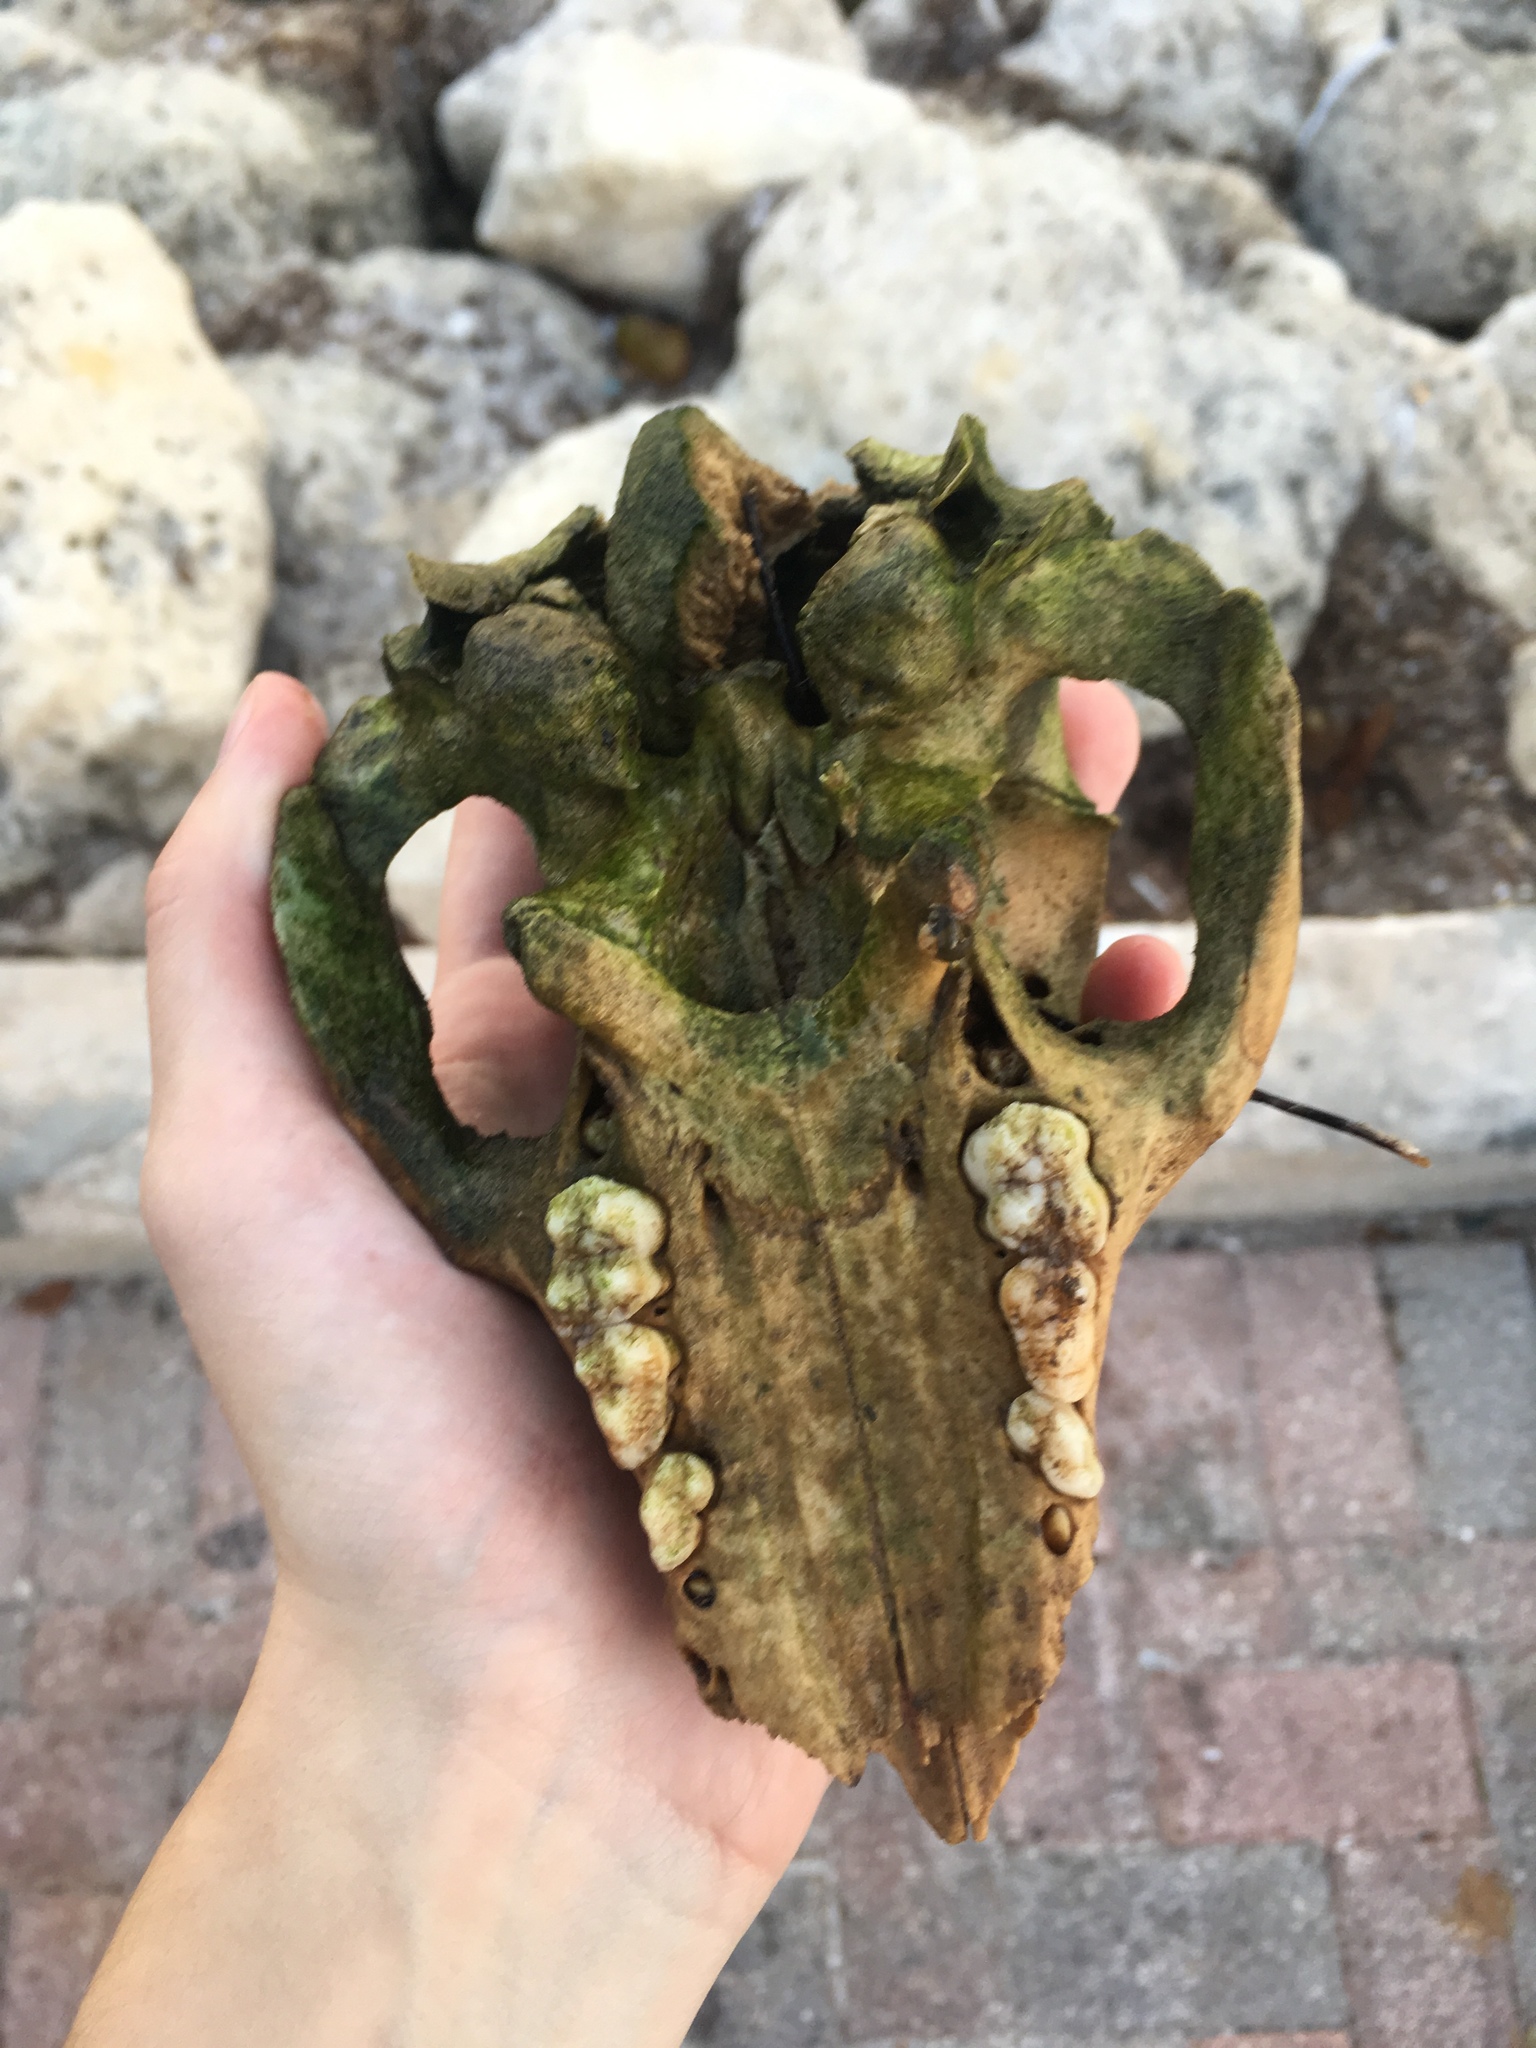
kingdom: Animalia
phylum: Chordata
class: Mammalia
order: Artiodactyla
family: Suidae
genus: Sus
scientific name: Sus scrofa
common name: Wild boar
